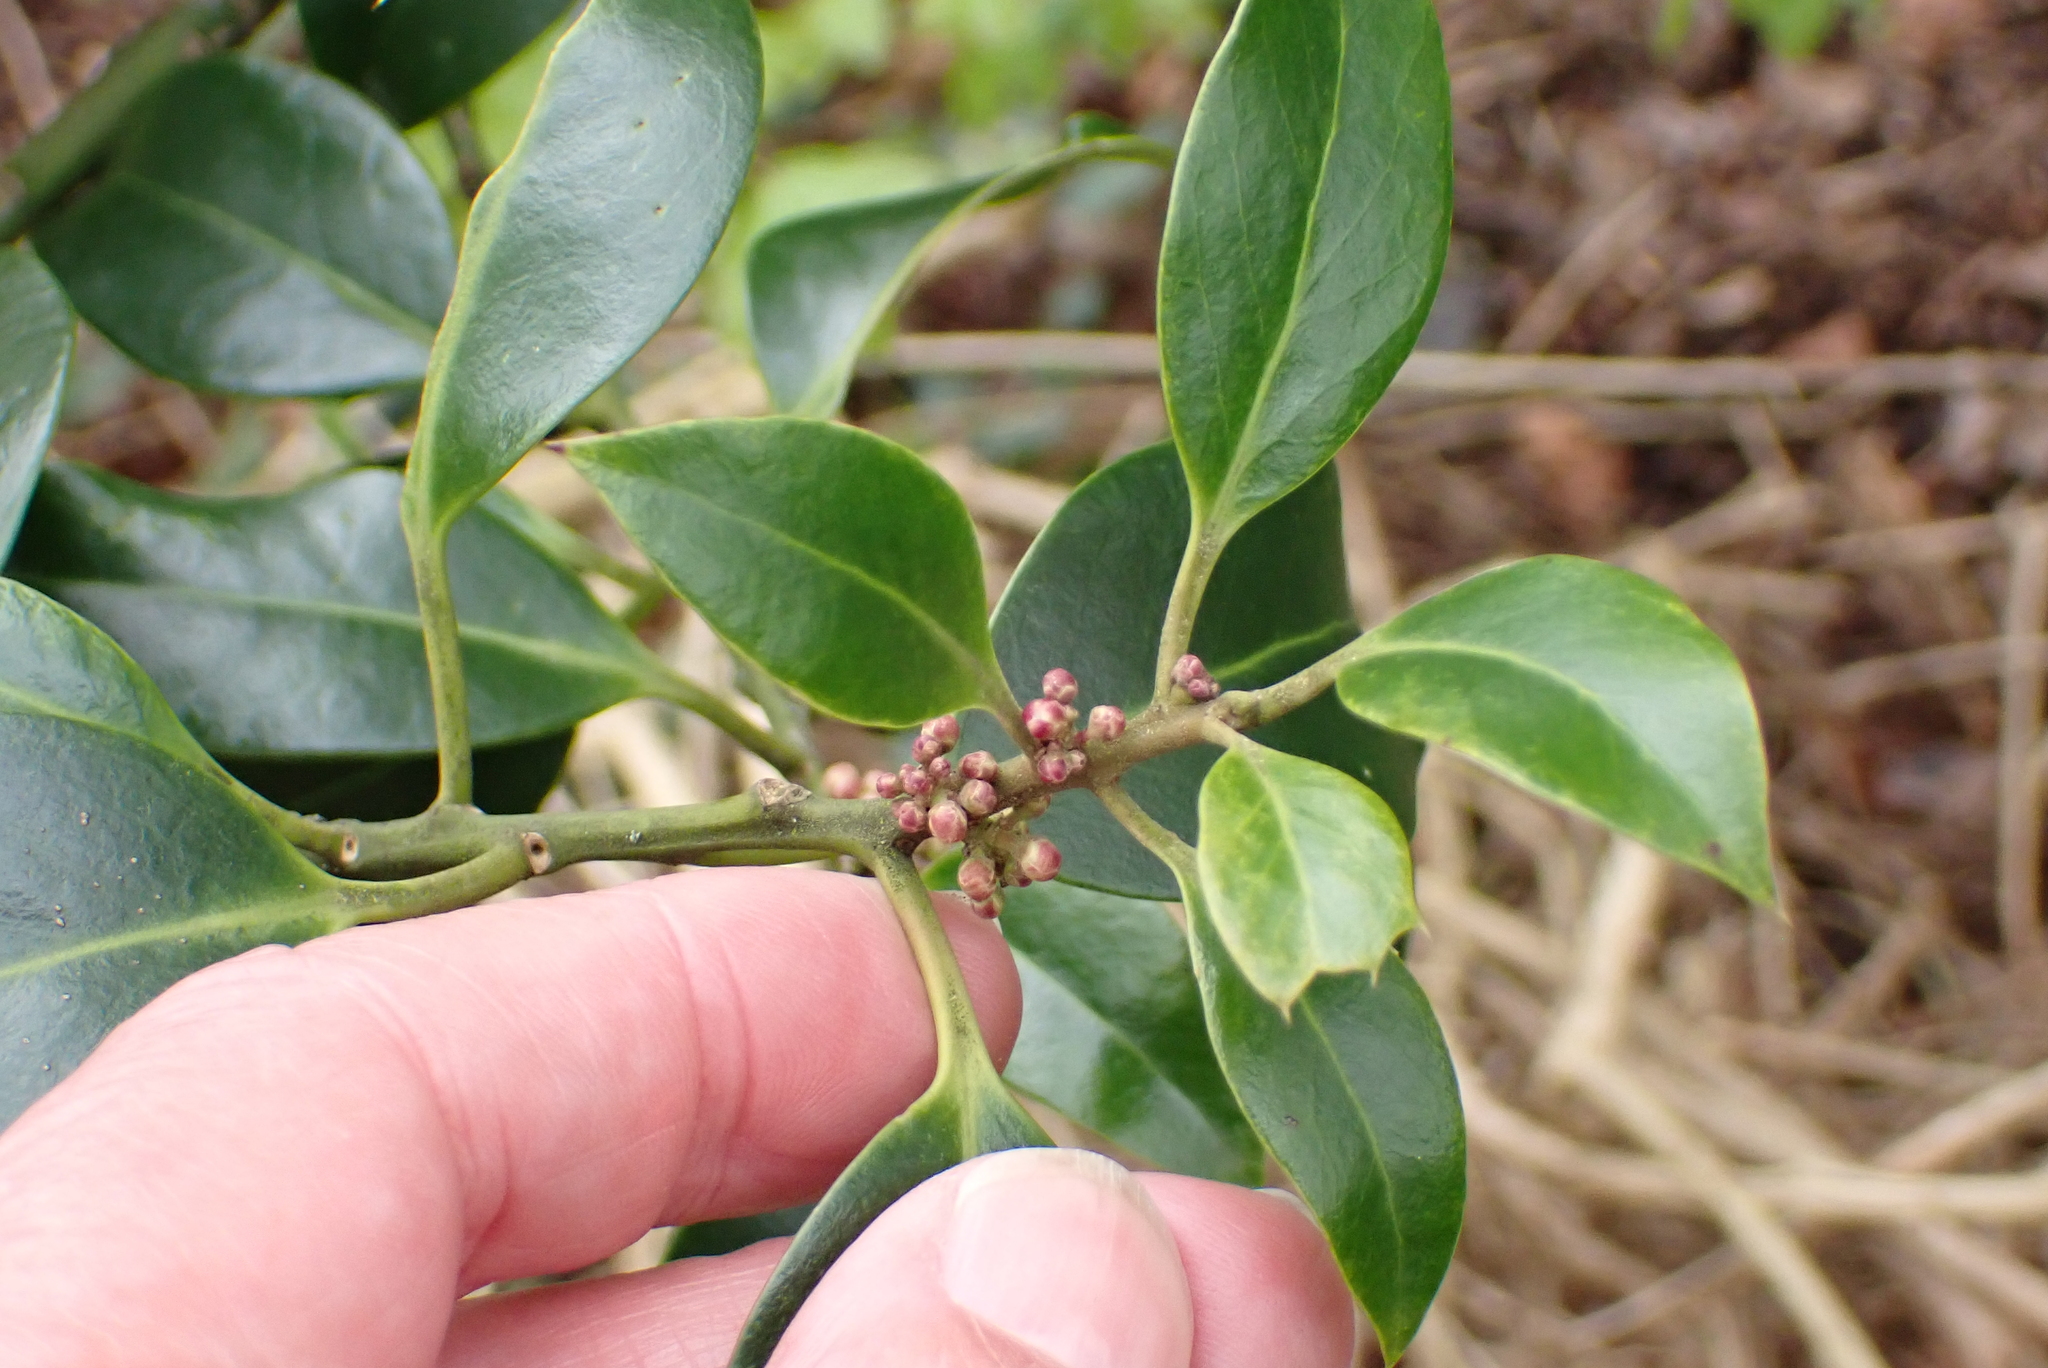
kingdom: Plantae
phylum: Tracheophyta
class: Magnoliopsida
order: Aquifoliales
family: Aquifoliaceae
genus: Ilex
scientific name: Ilex aquifolium
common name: English holly
